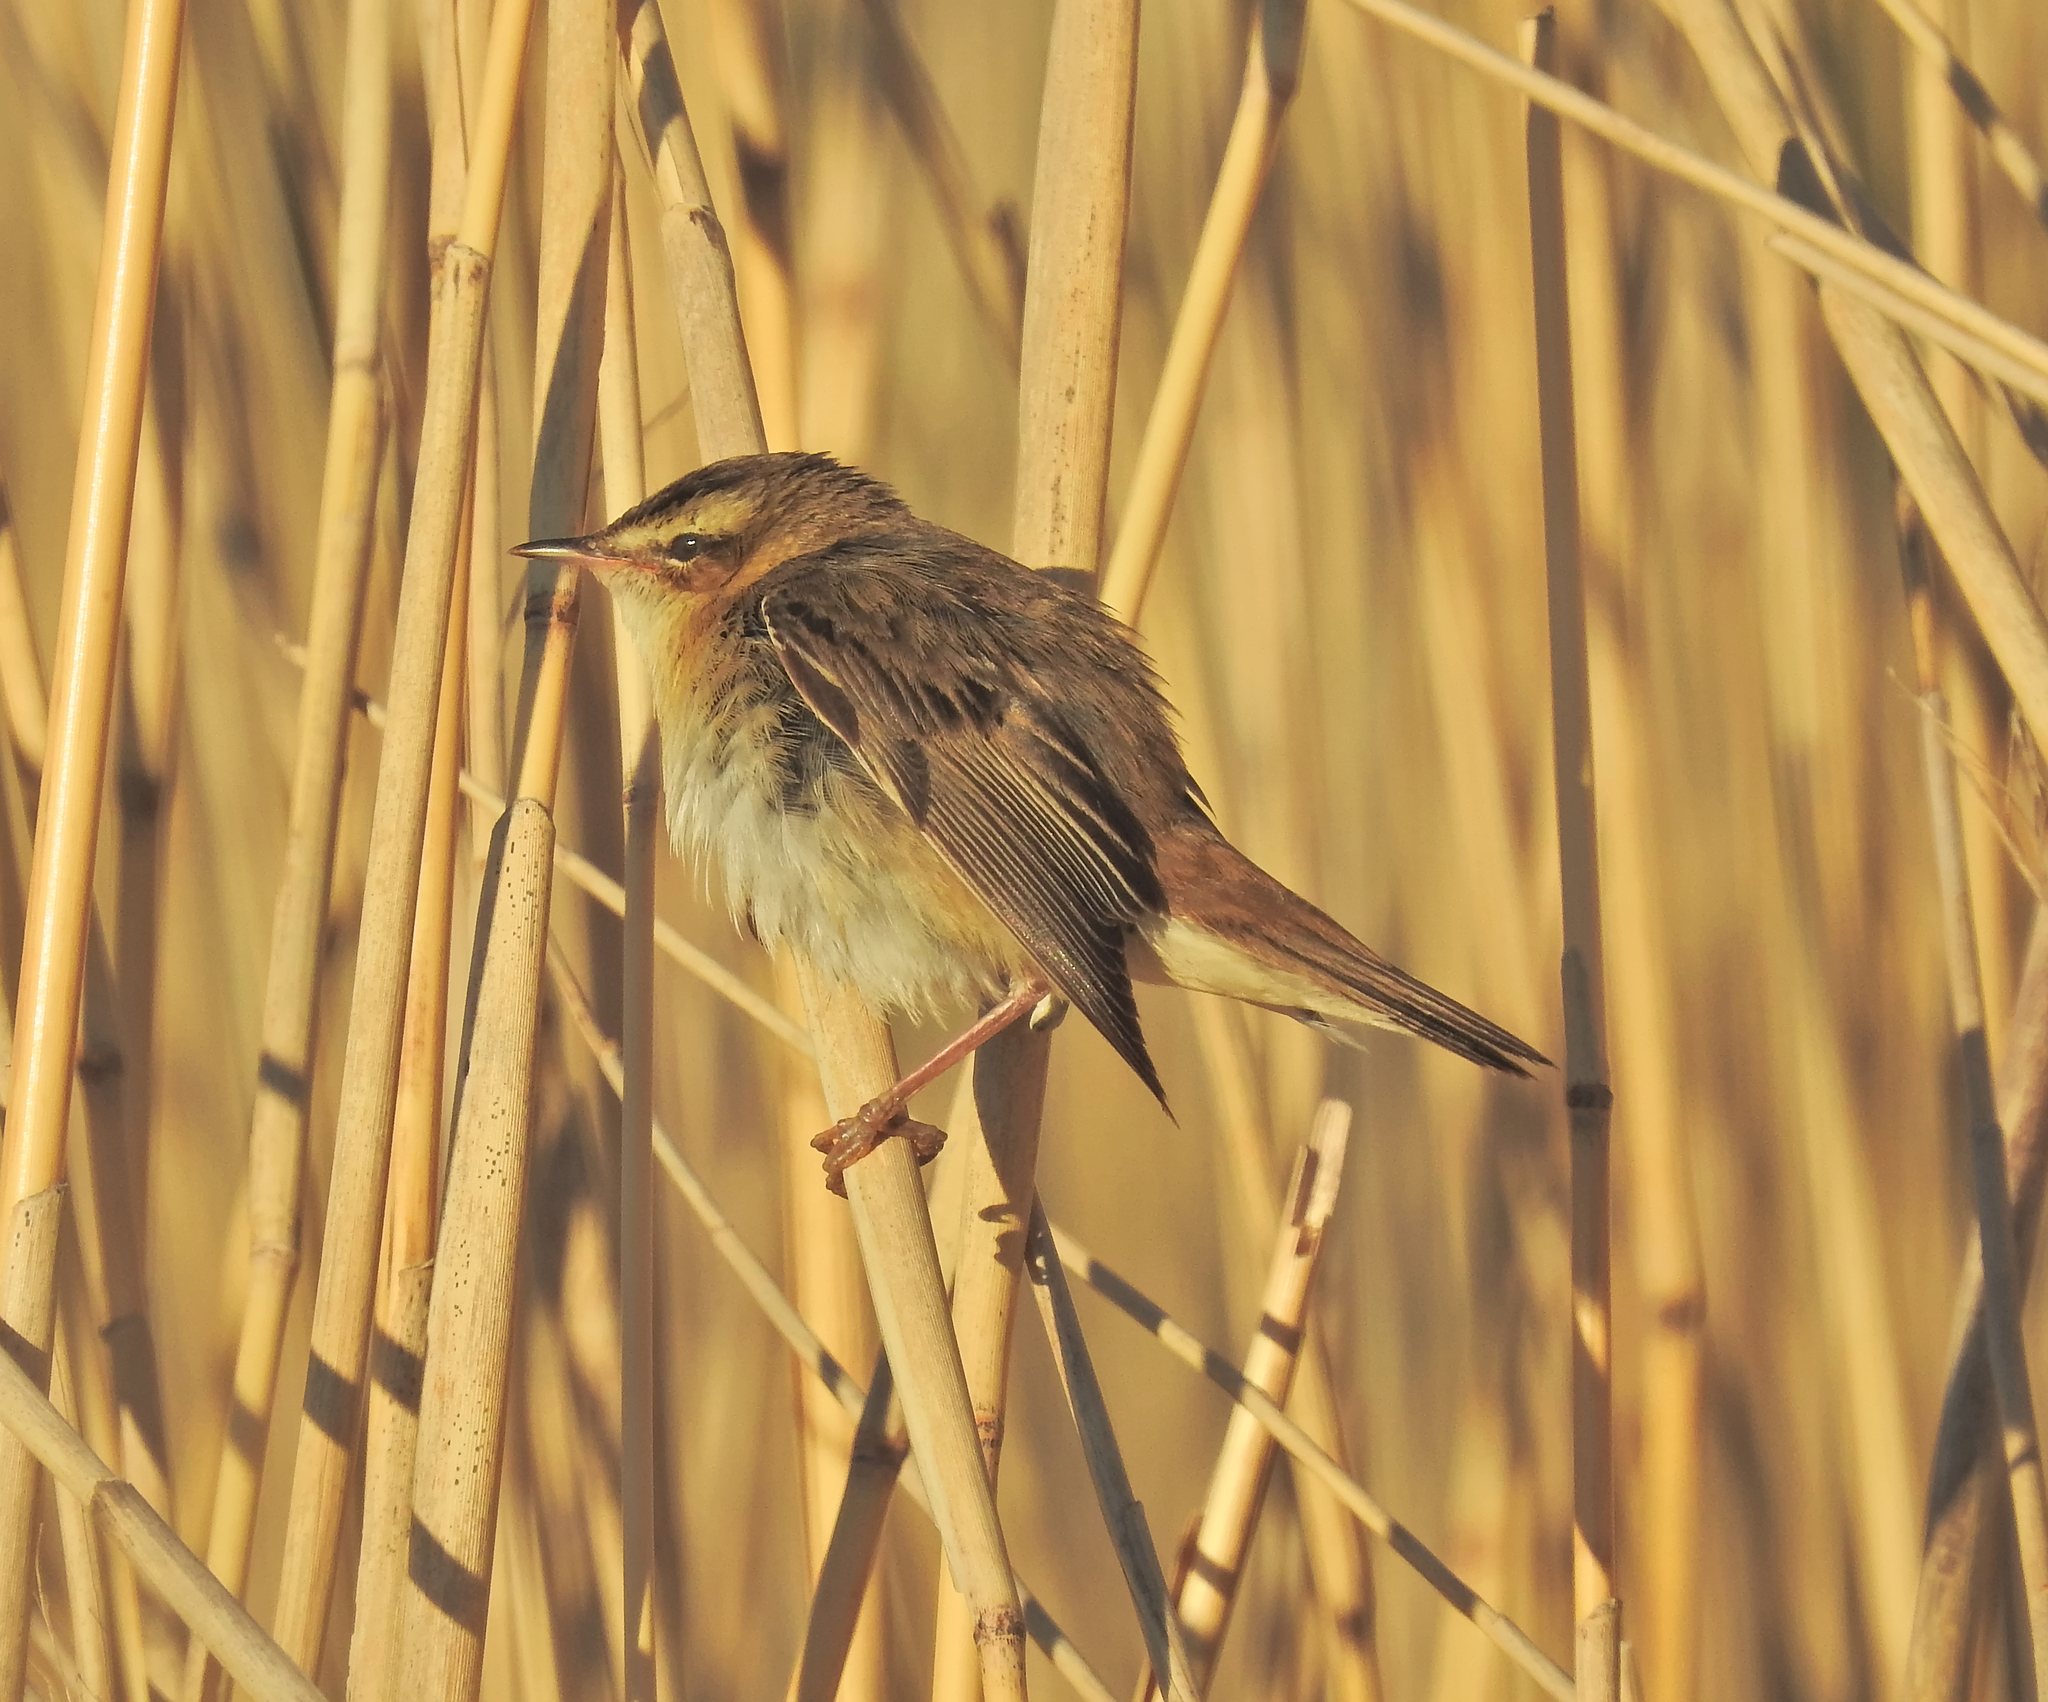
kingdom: Animalia
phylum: Chordata
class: Aves
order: Passeriformes
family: Acrocephalidae
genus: Acrocephalus
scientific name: Acrocephalus schoenobaenus
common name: Sedge warbler
